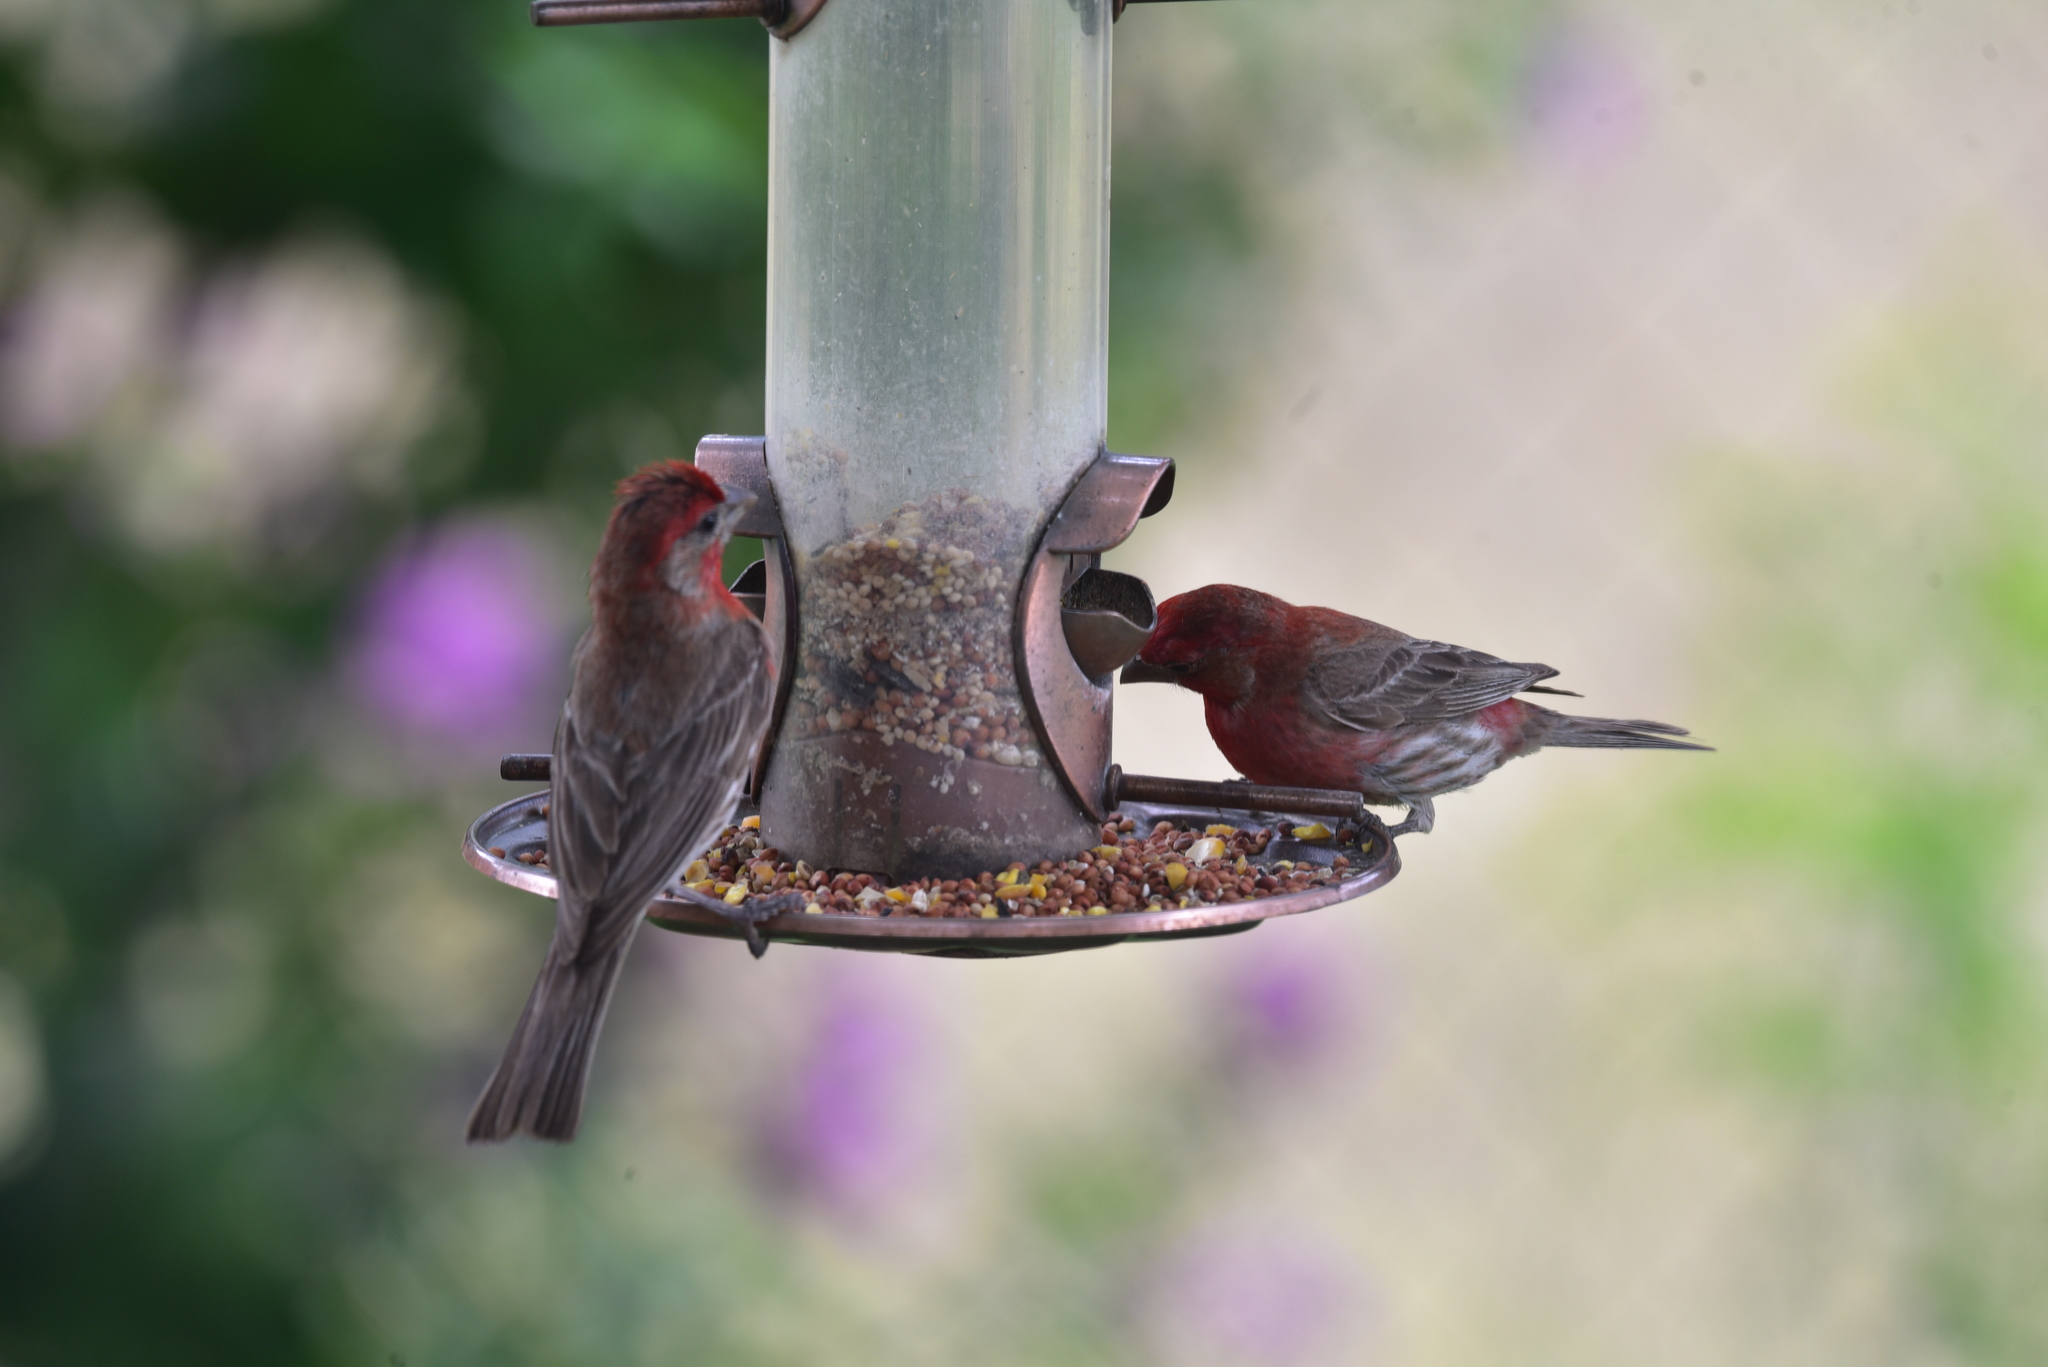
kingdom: Animalia
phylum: Chordata
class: Aves
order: Passeriformes
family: Fringillidae
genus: Haemorhous
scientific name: Haemorhous mexicanus
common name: House finch
